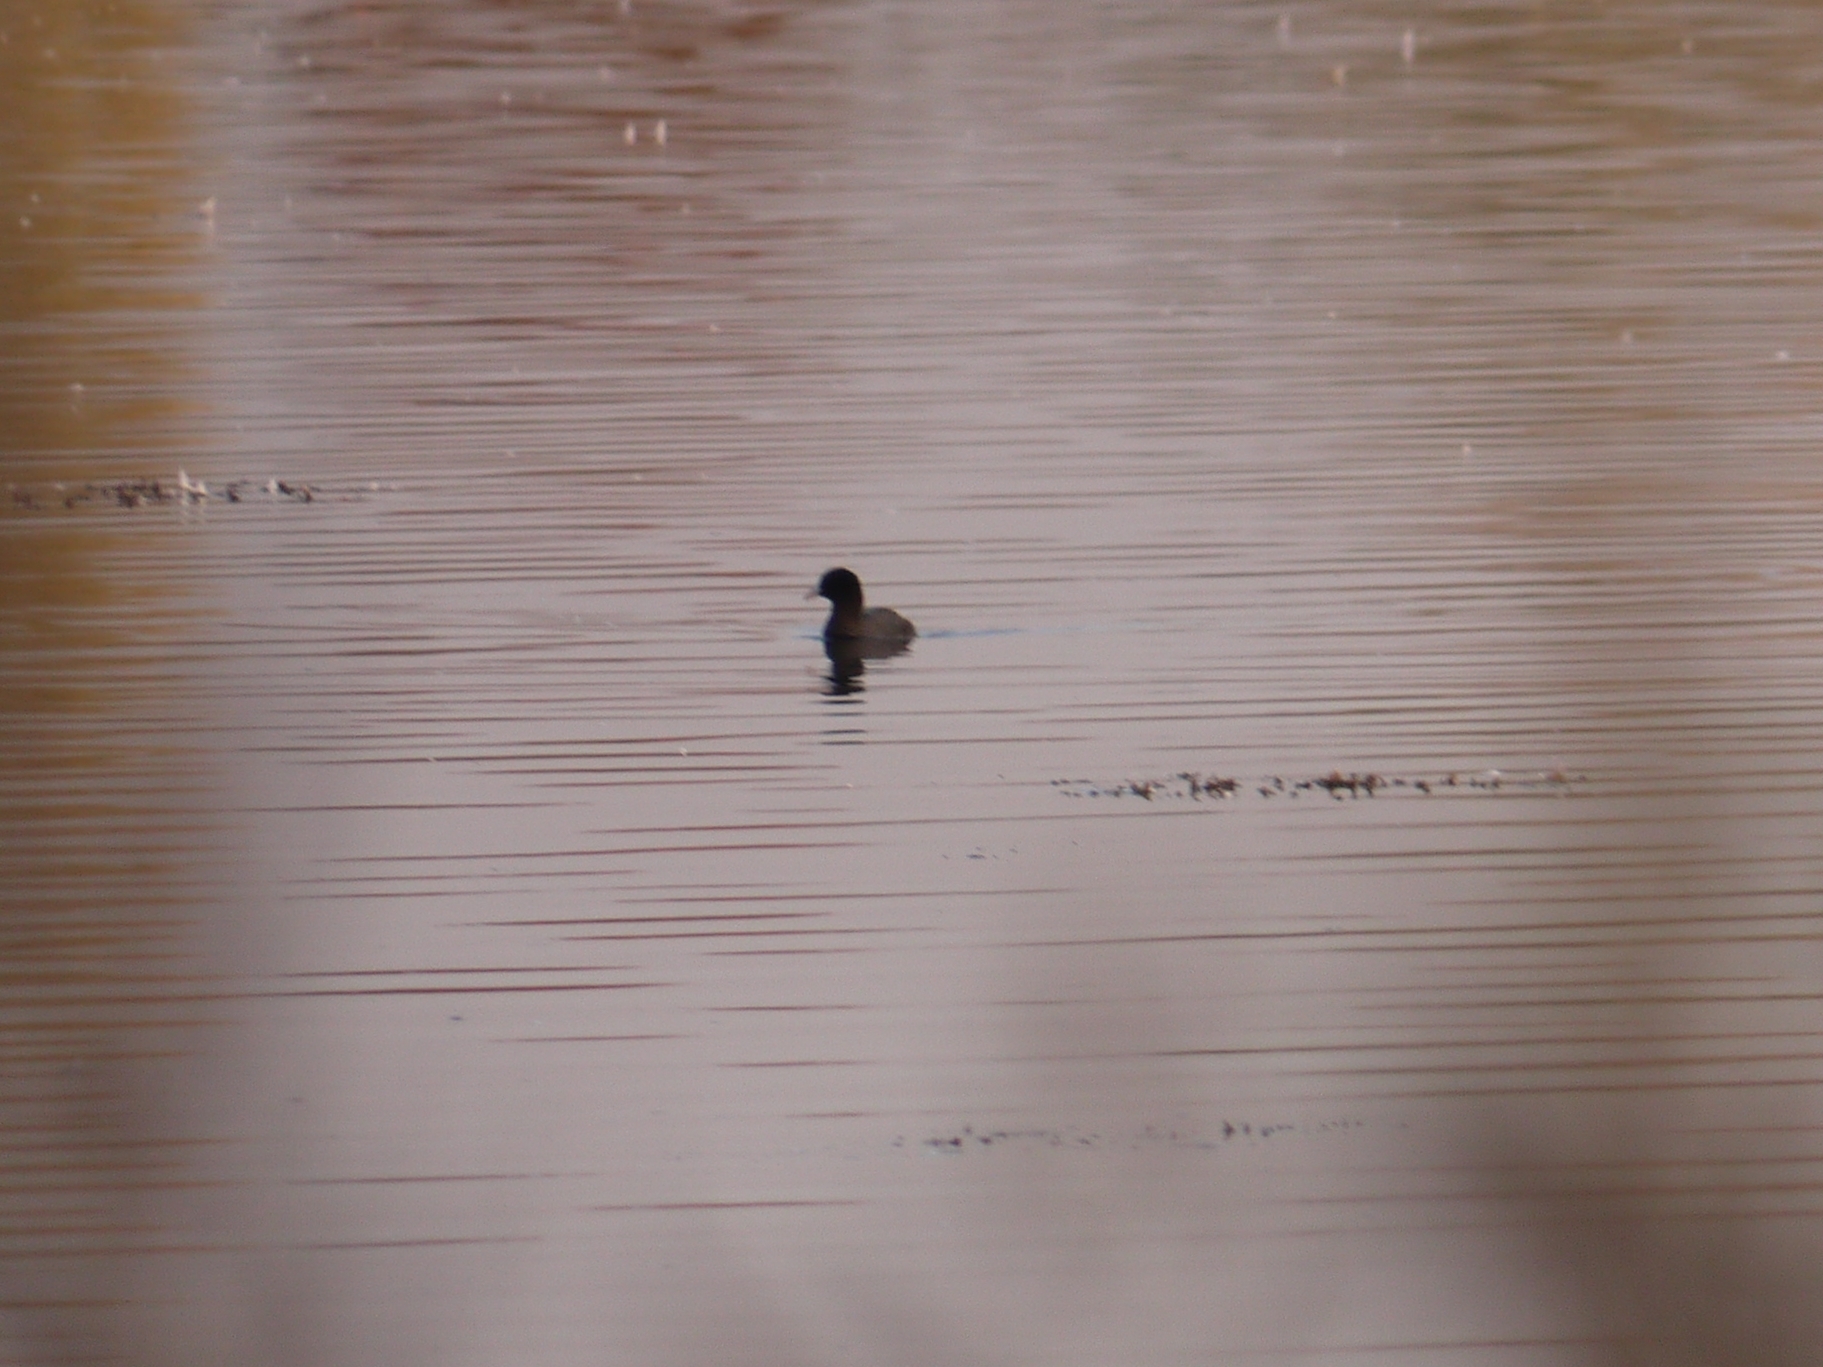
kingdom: Animalia
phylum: Chordata
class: Aves
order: Gruiformes
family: Rallidae
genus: Fulica
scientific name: Fulica atra
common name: Eurasian coot
